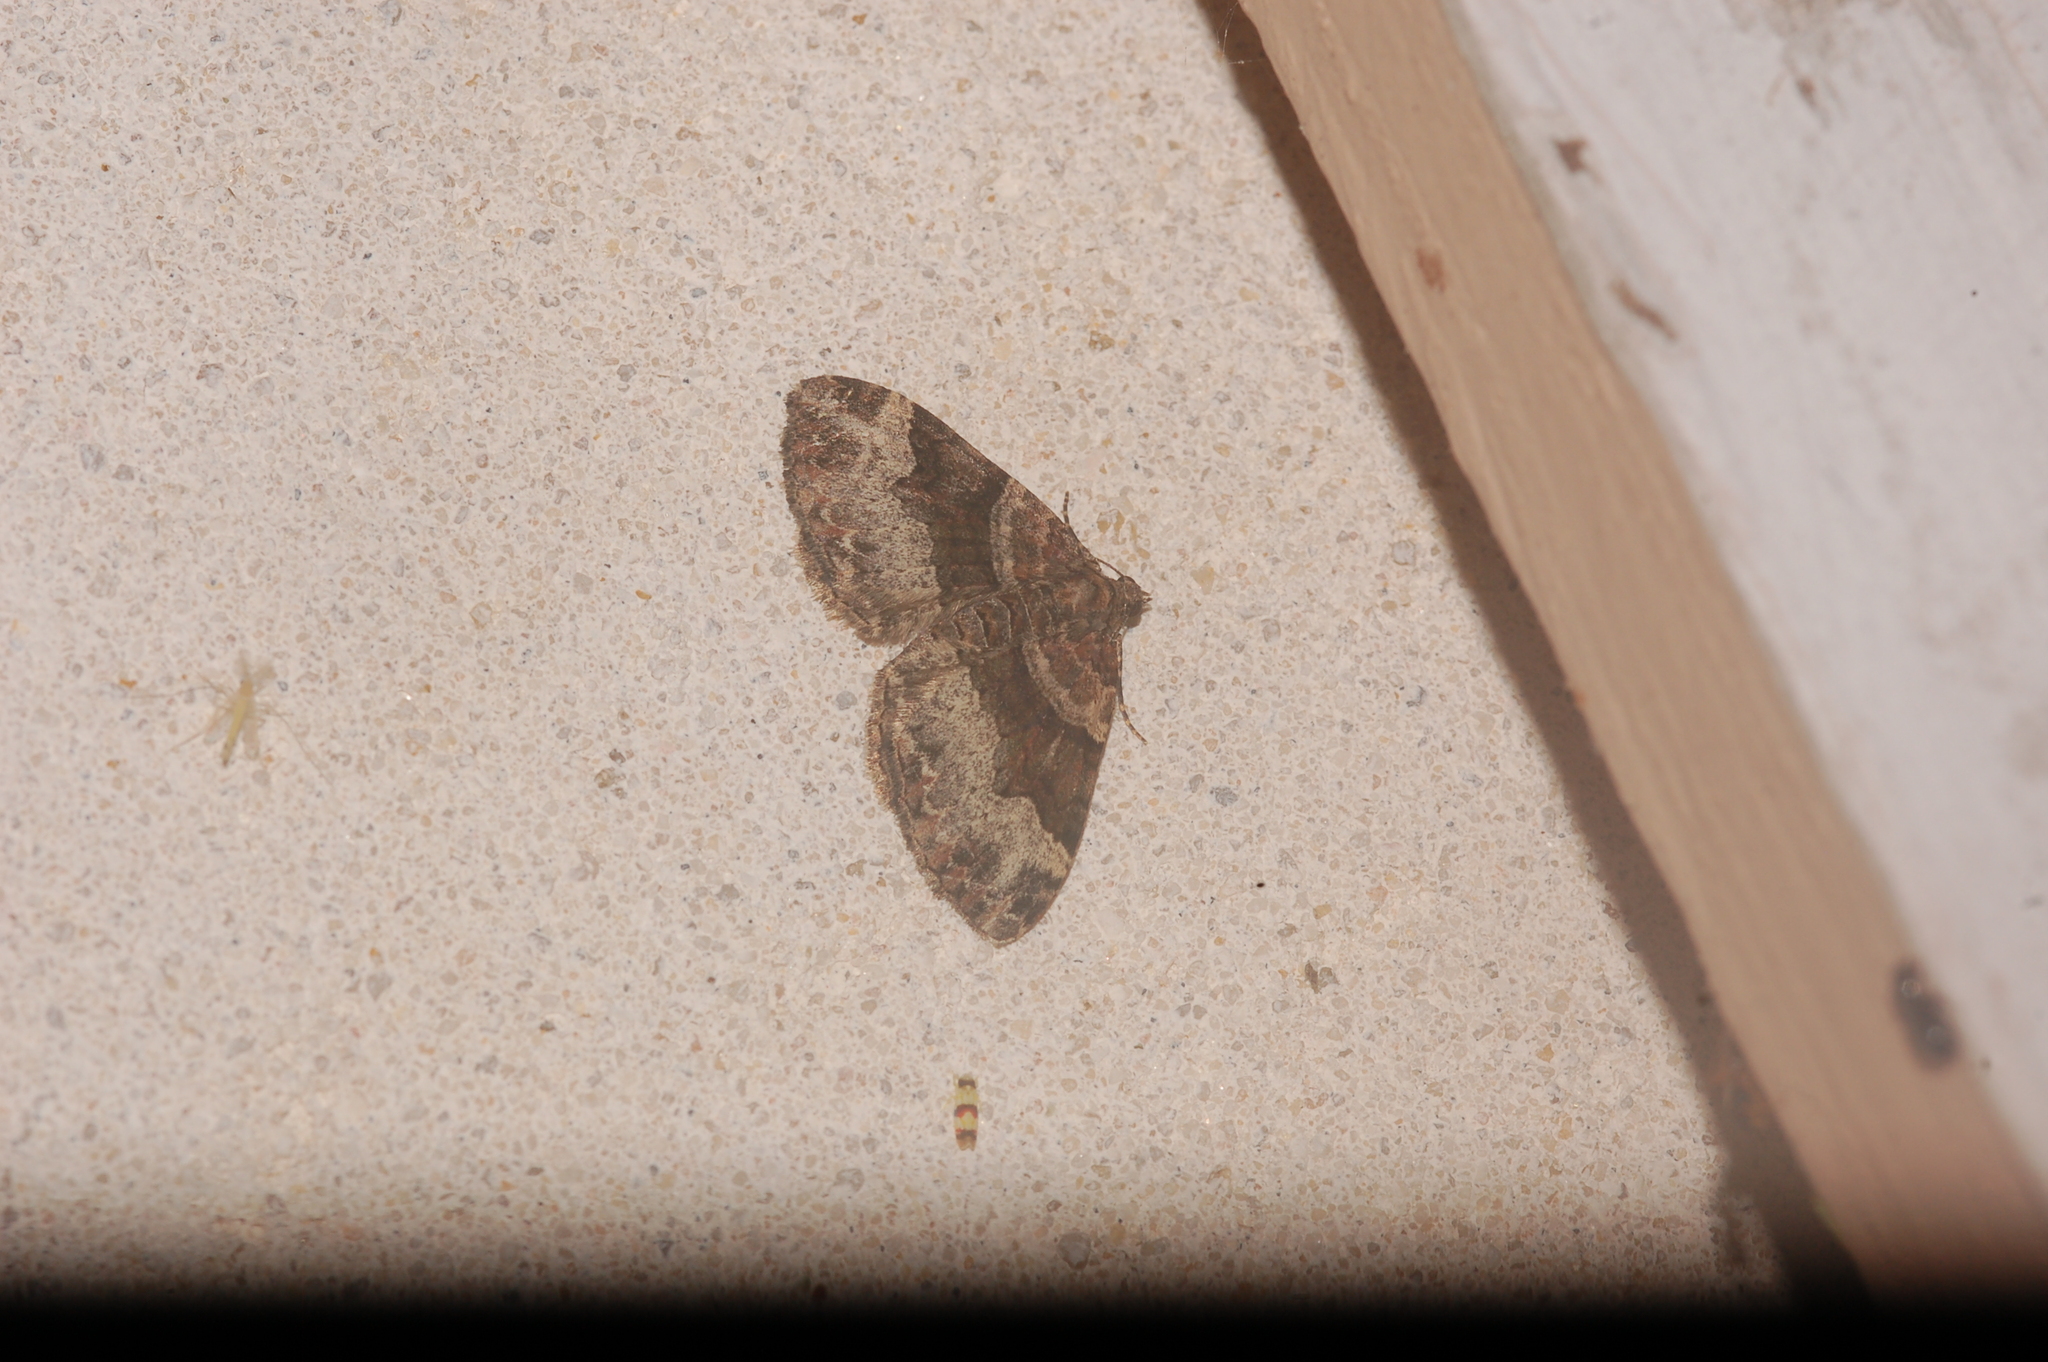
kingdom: Animalia
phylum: Arthropoda
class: Insecta
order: Lepidoptera
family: Geometridae
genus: Xanthorhoe
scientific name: Xanthorhoe lacustrata
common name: Toothed brown carpet
